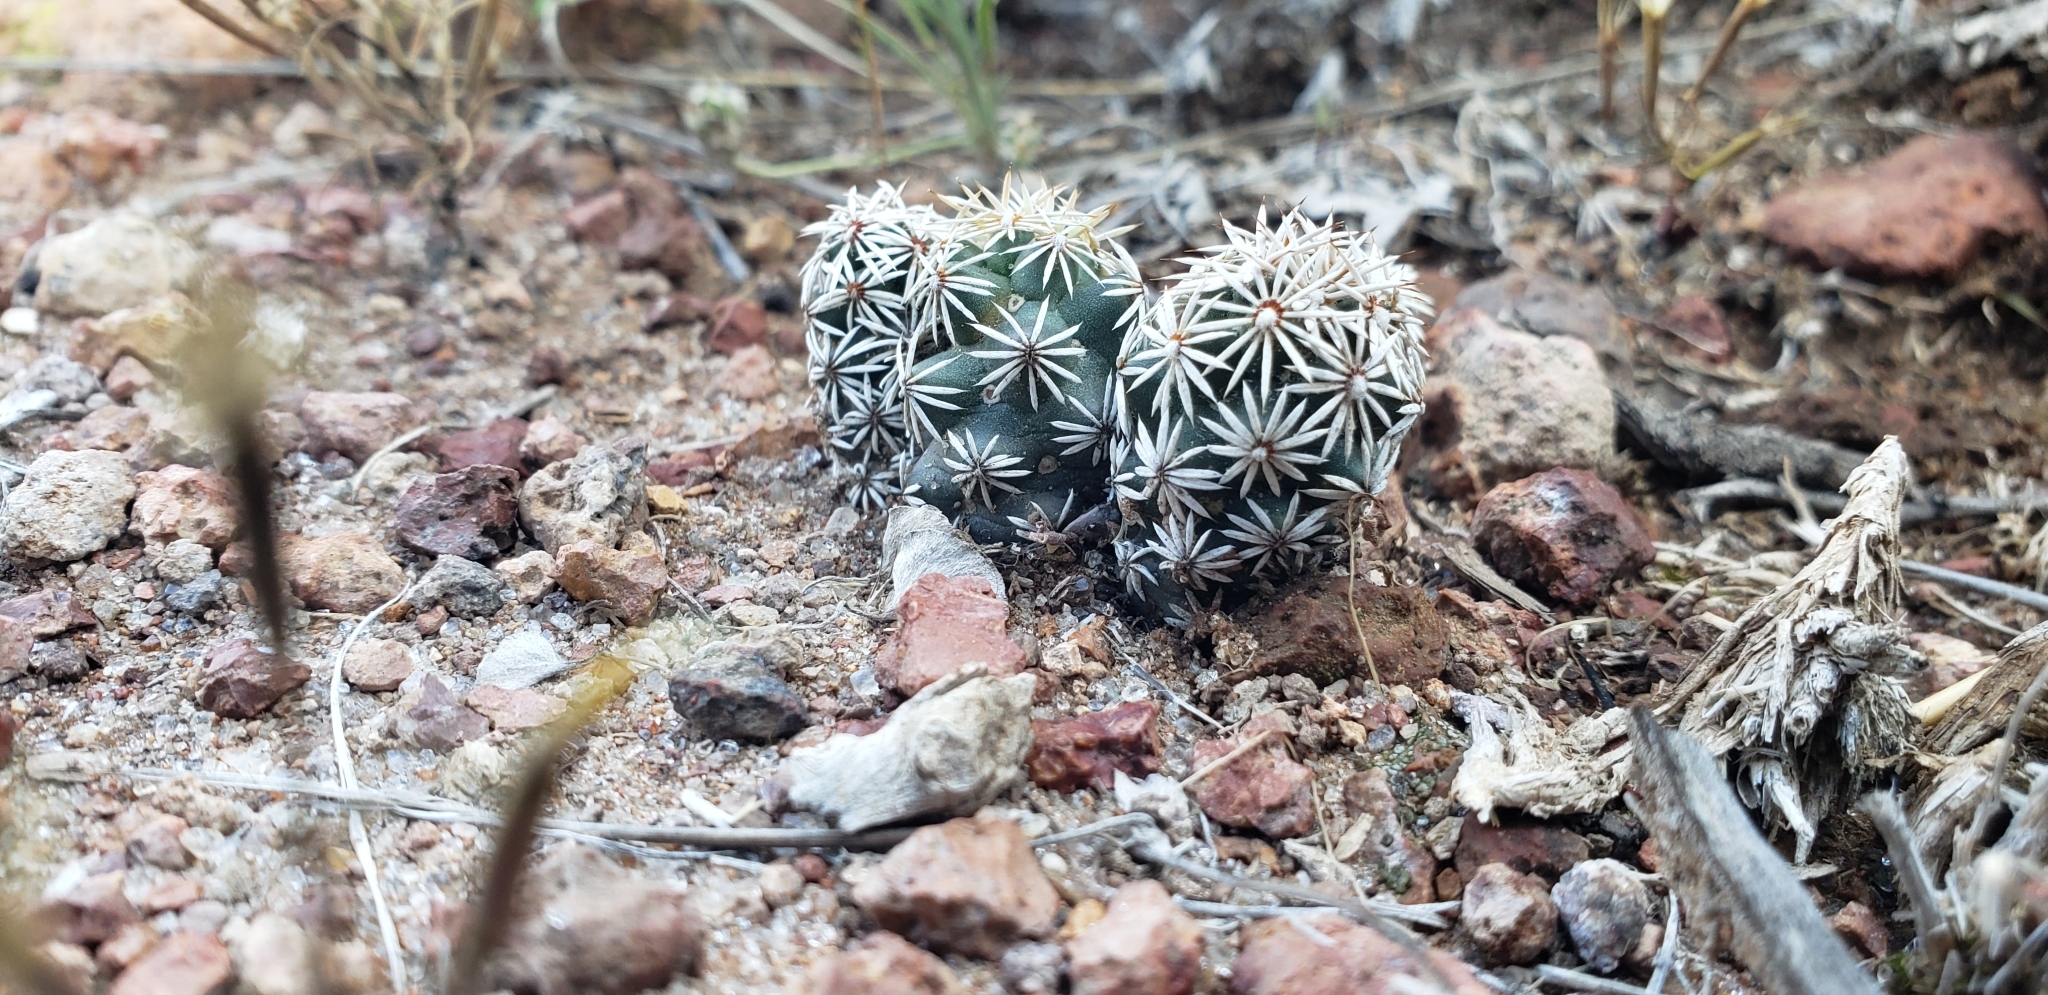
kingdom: Plantae
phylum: Tracheophyta
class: Magnoliopsida
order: Caryophyllales
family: Cactaceae
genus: Coryphantha
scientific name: Coryphantha clavata
